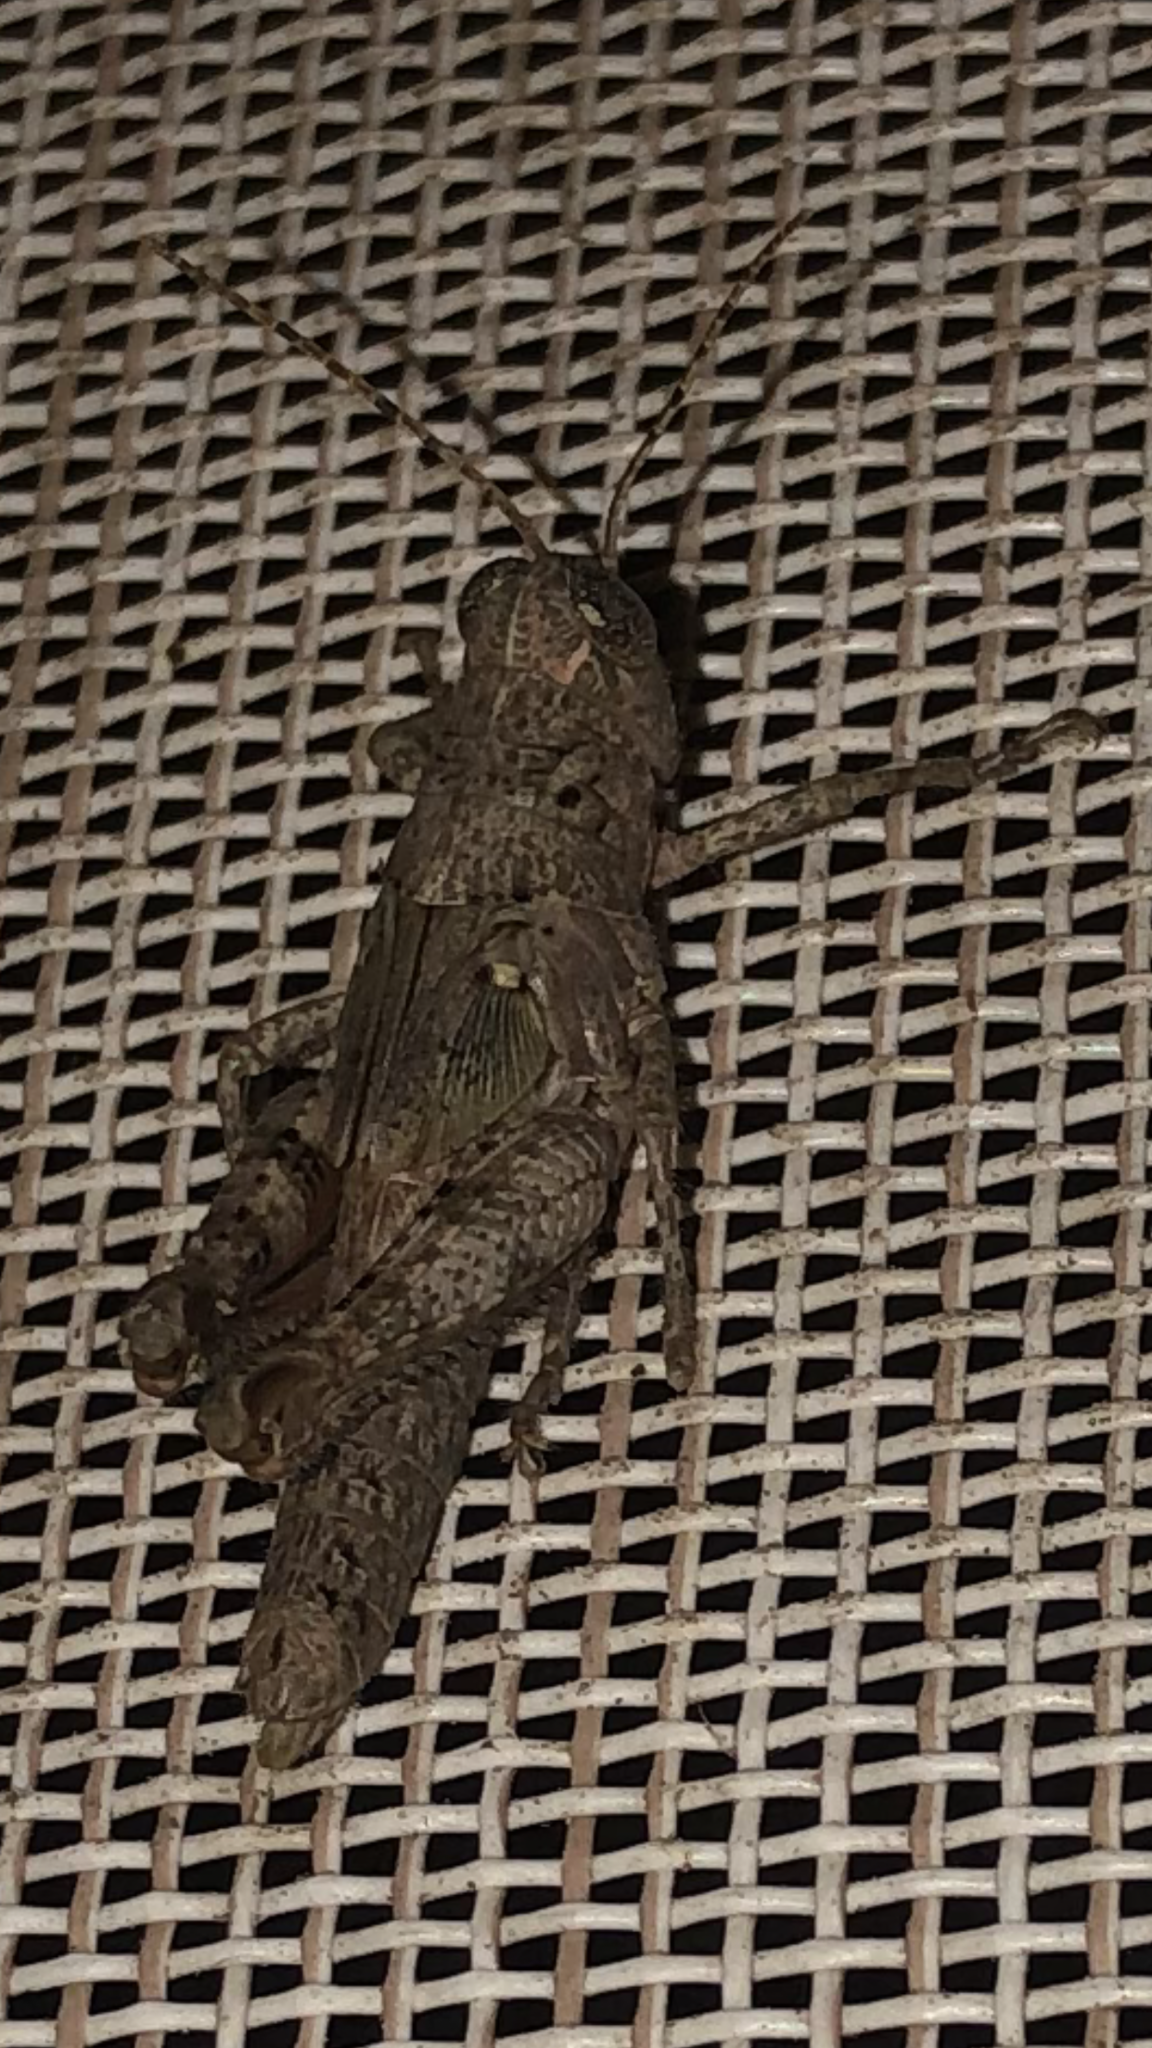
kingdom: Animalia
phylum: Arthropoda
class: Insecta
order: Orthoptera
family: Acrididae
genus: Melanoplus
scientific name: Melanoplus punctulatus
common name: Pine-tree spur-throat grasshopper
